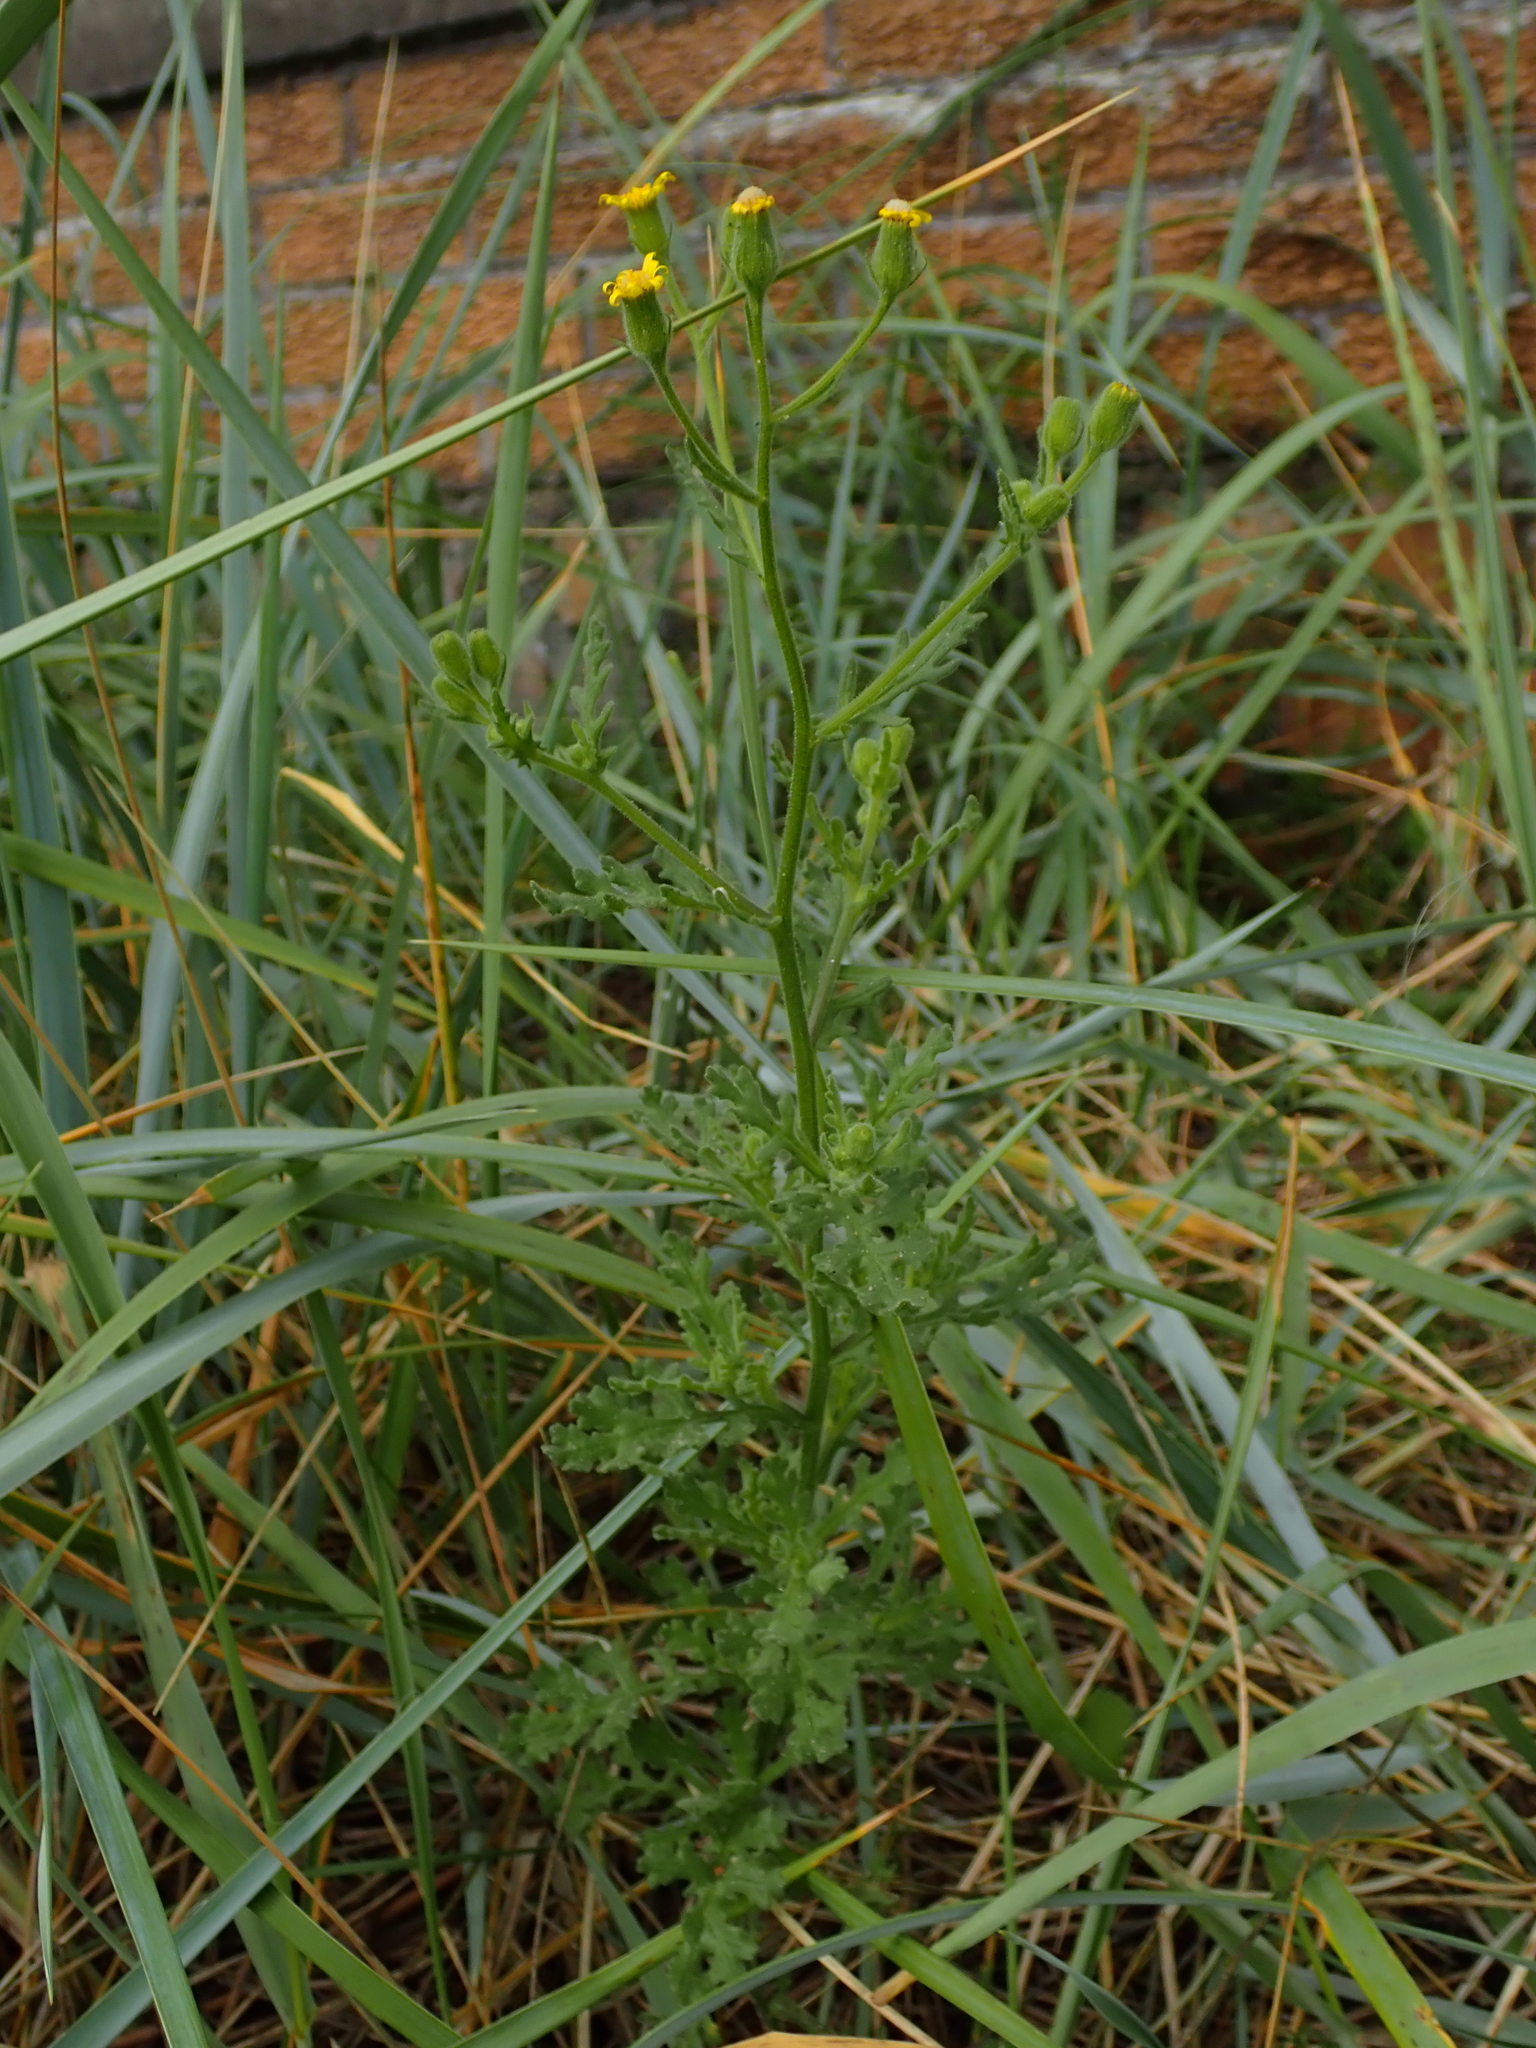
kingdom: Plantae
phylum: Tracheophyta
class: Magnoliopsida
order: Asterales
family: Asteraceae
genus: Senecio
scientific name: Senecio viscosus
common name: Sticky groundsel
